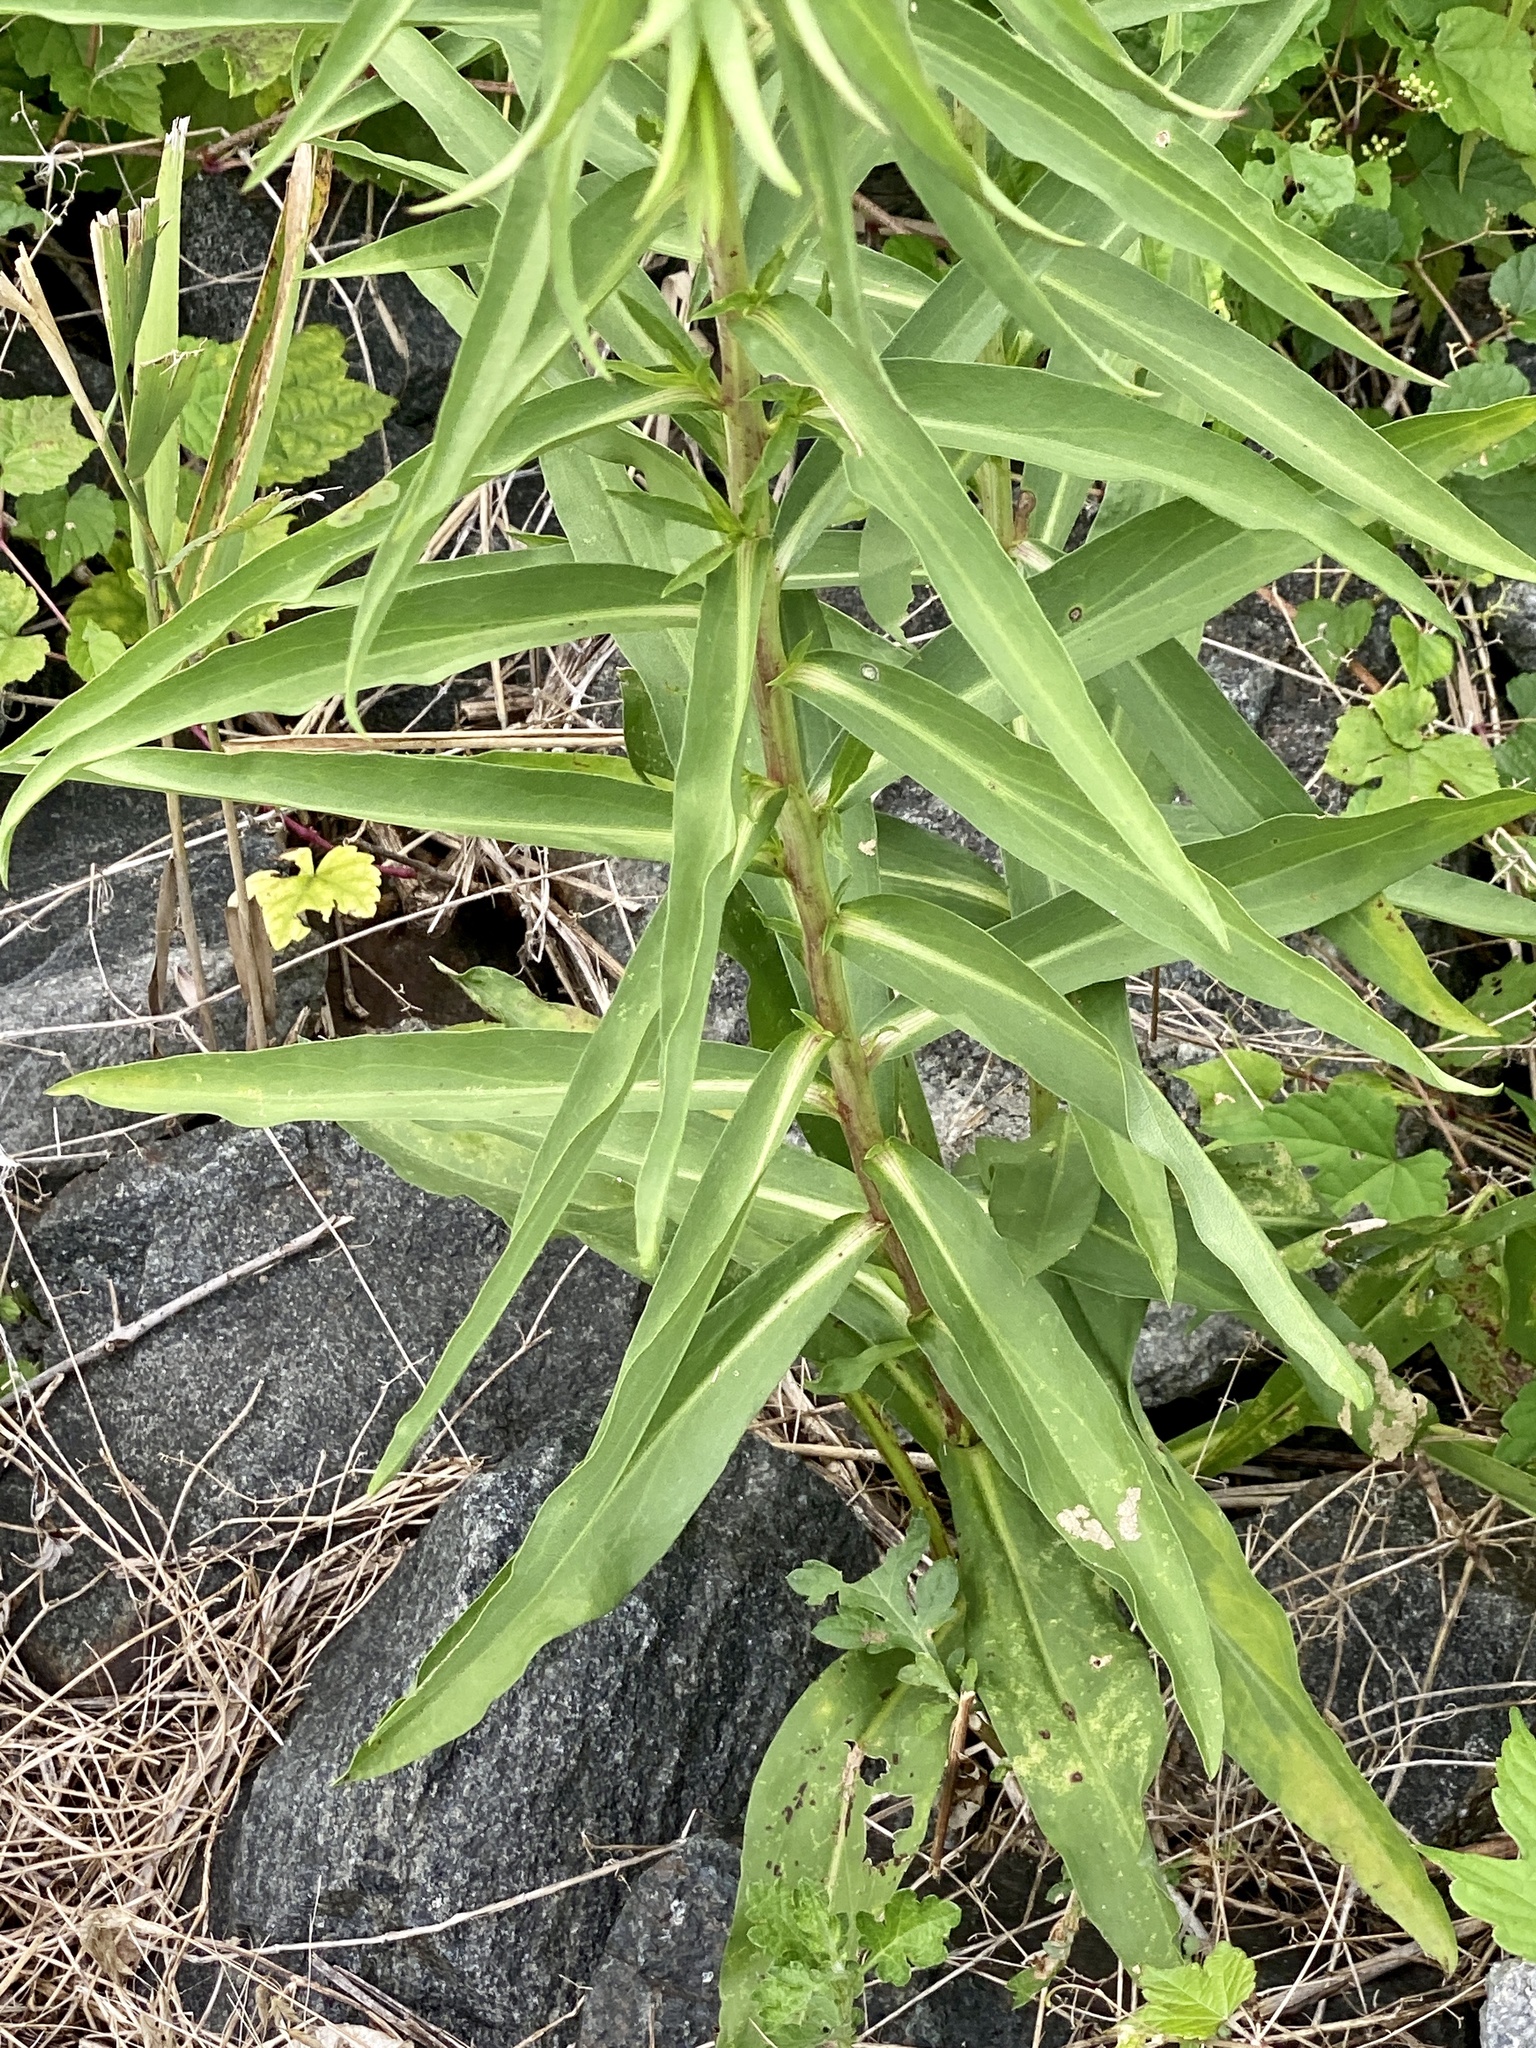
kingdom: Plantae
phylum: Tracheophyta
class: Magnoliopsida
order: Asterales
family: Asteraceae
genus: Solidago
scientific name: Solidago sempervirens
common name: Salt-marsh goldenrod
